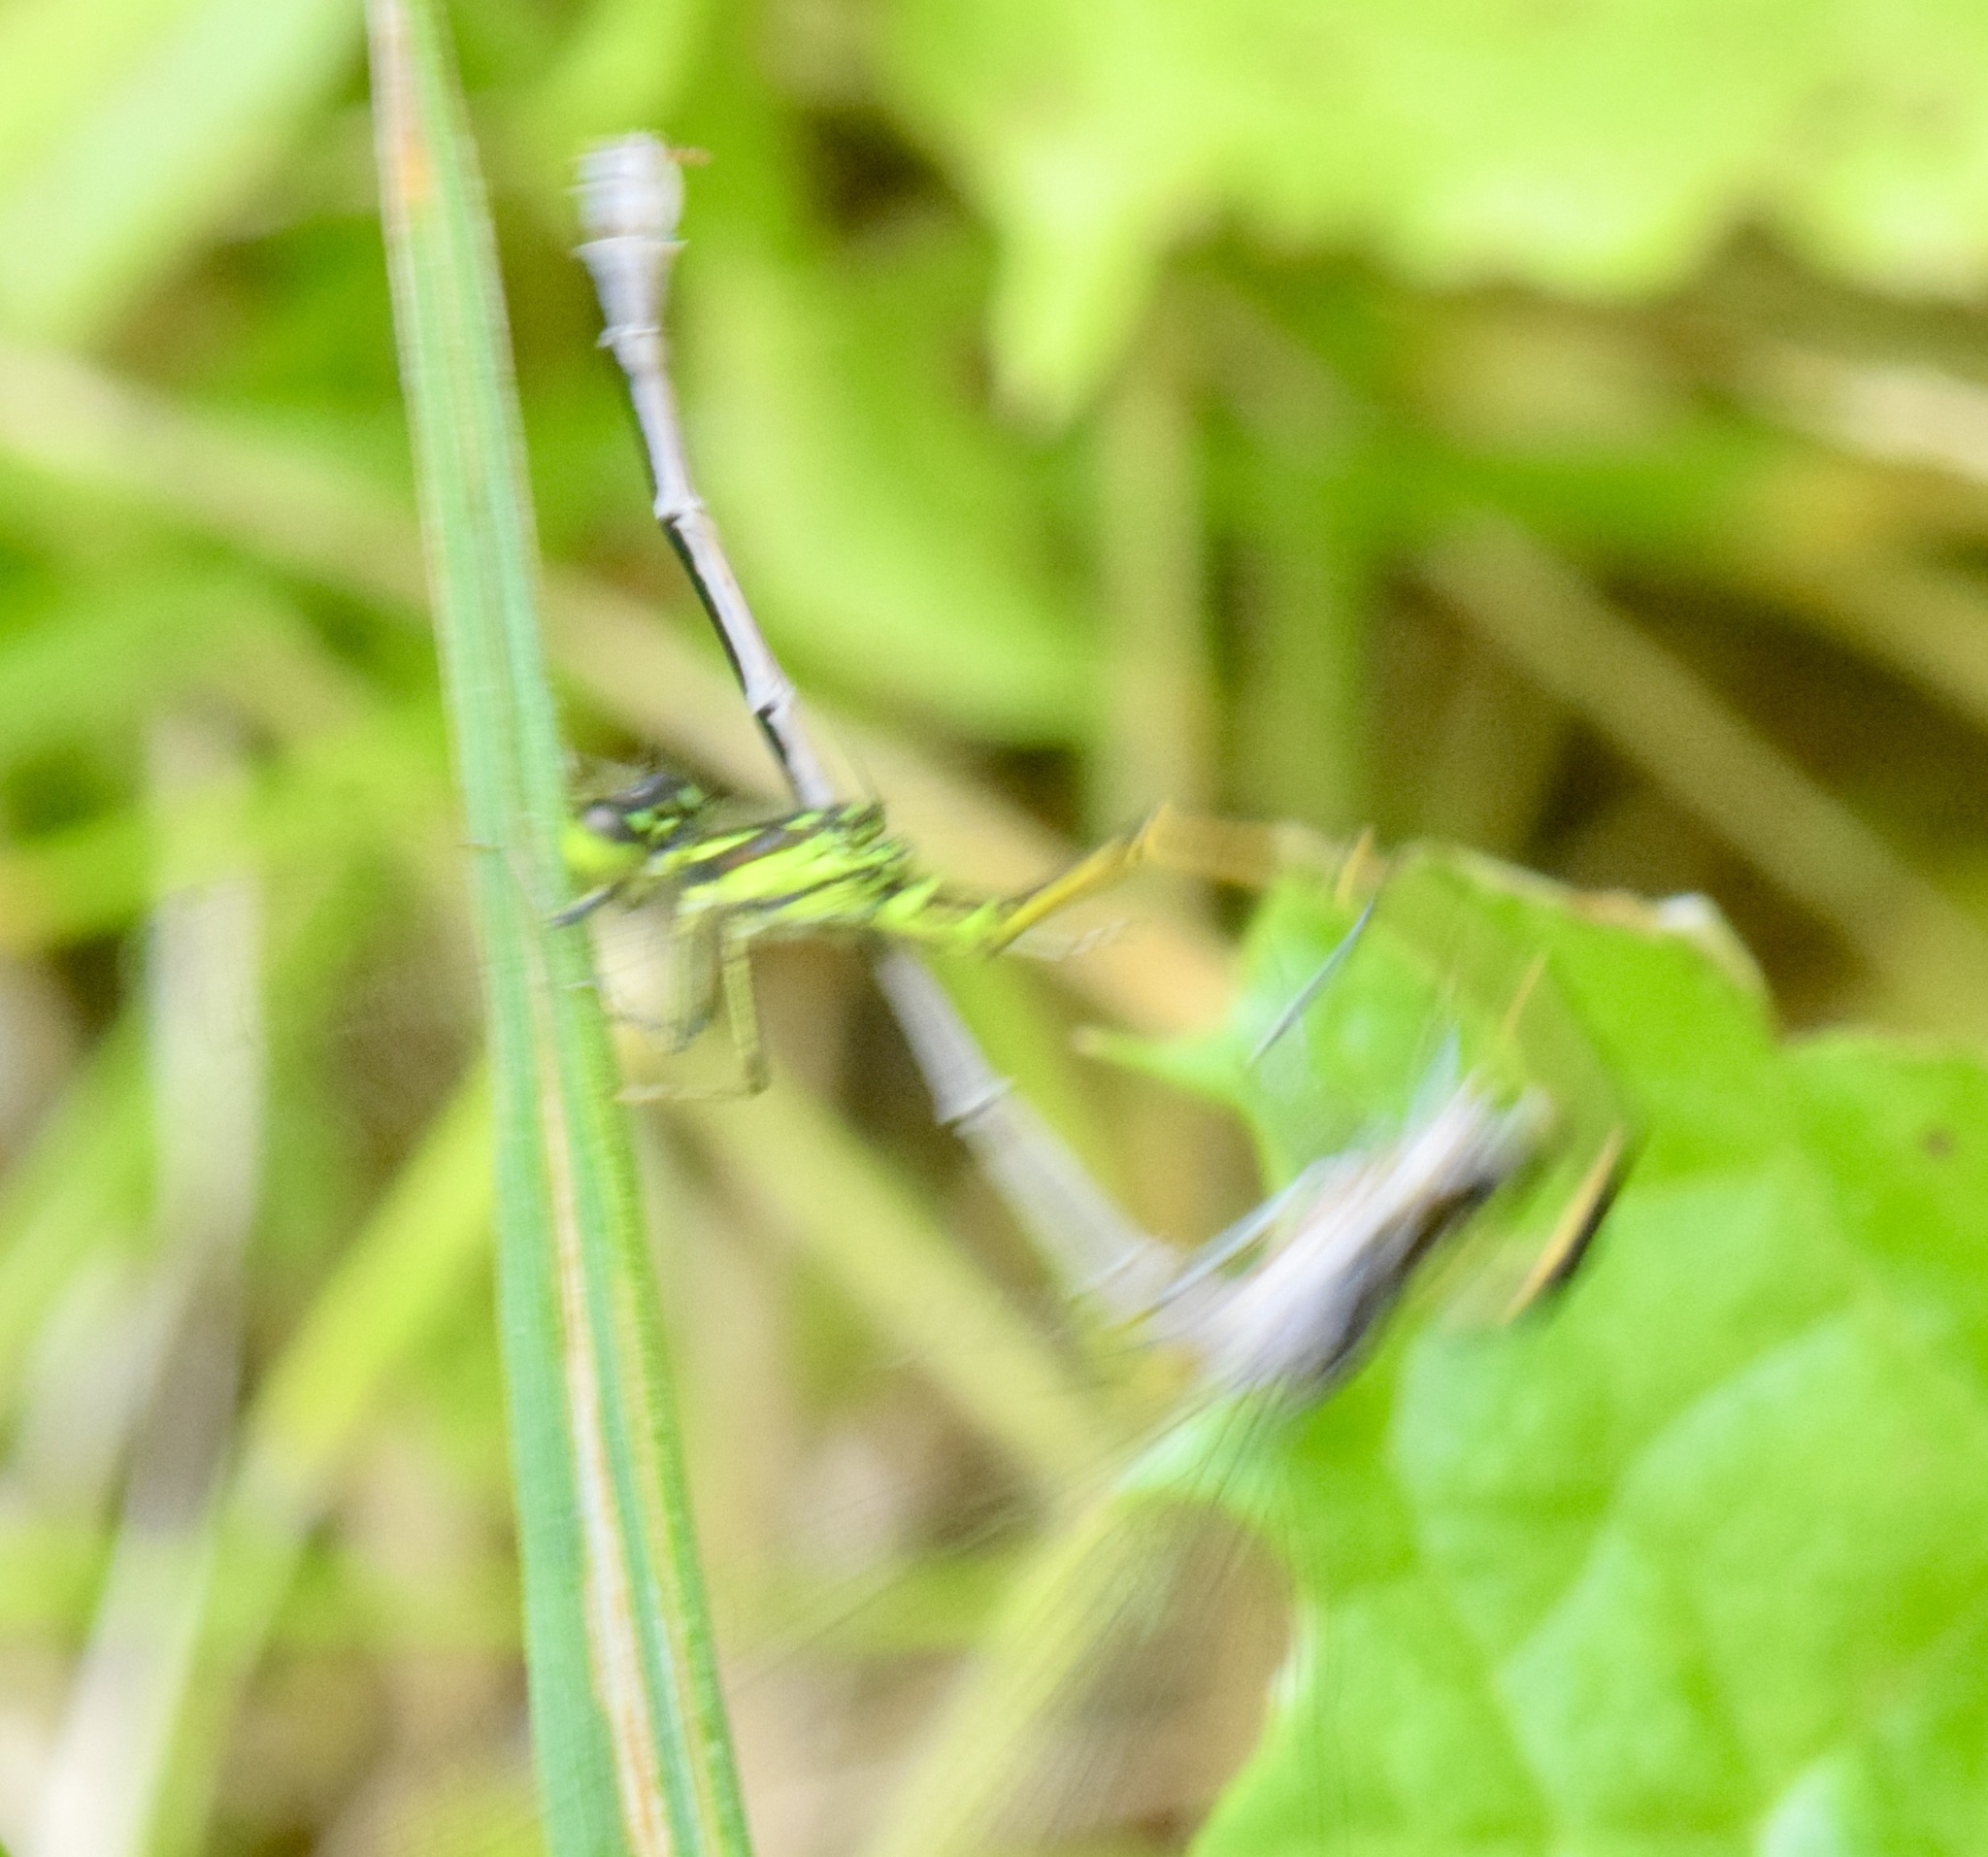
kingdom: Animalia
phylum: Arthropoda
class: Insecta
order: Odonata
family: Coenagrionidae
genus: Ischnura
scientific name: Ischnura posita
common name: Fragile forktail
